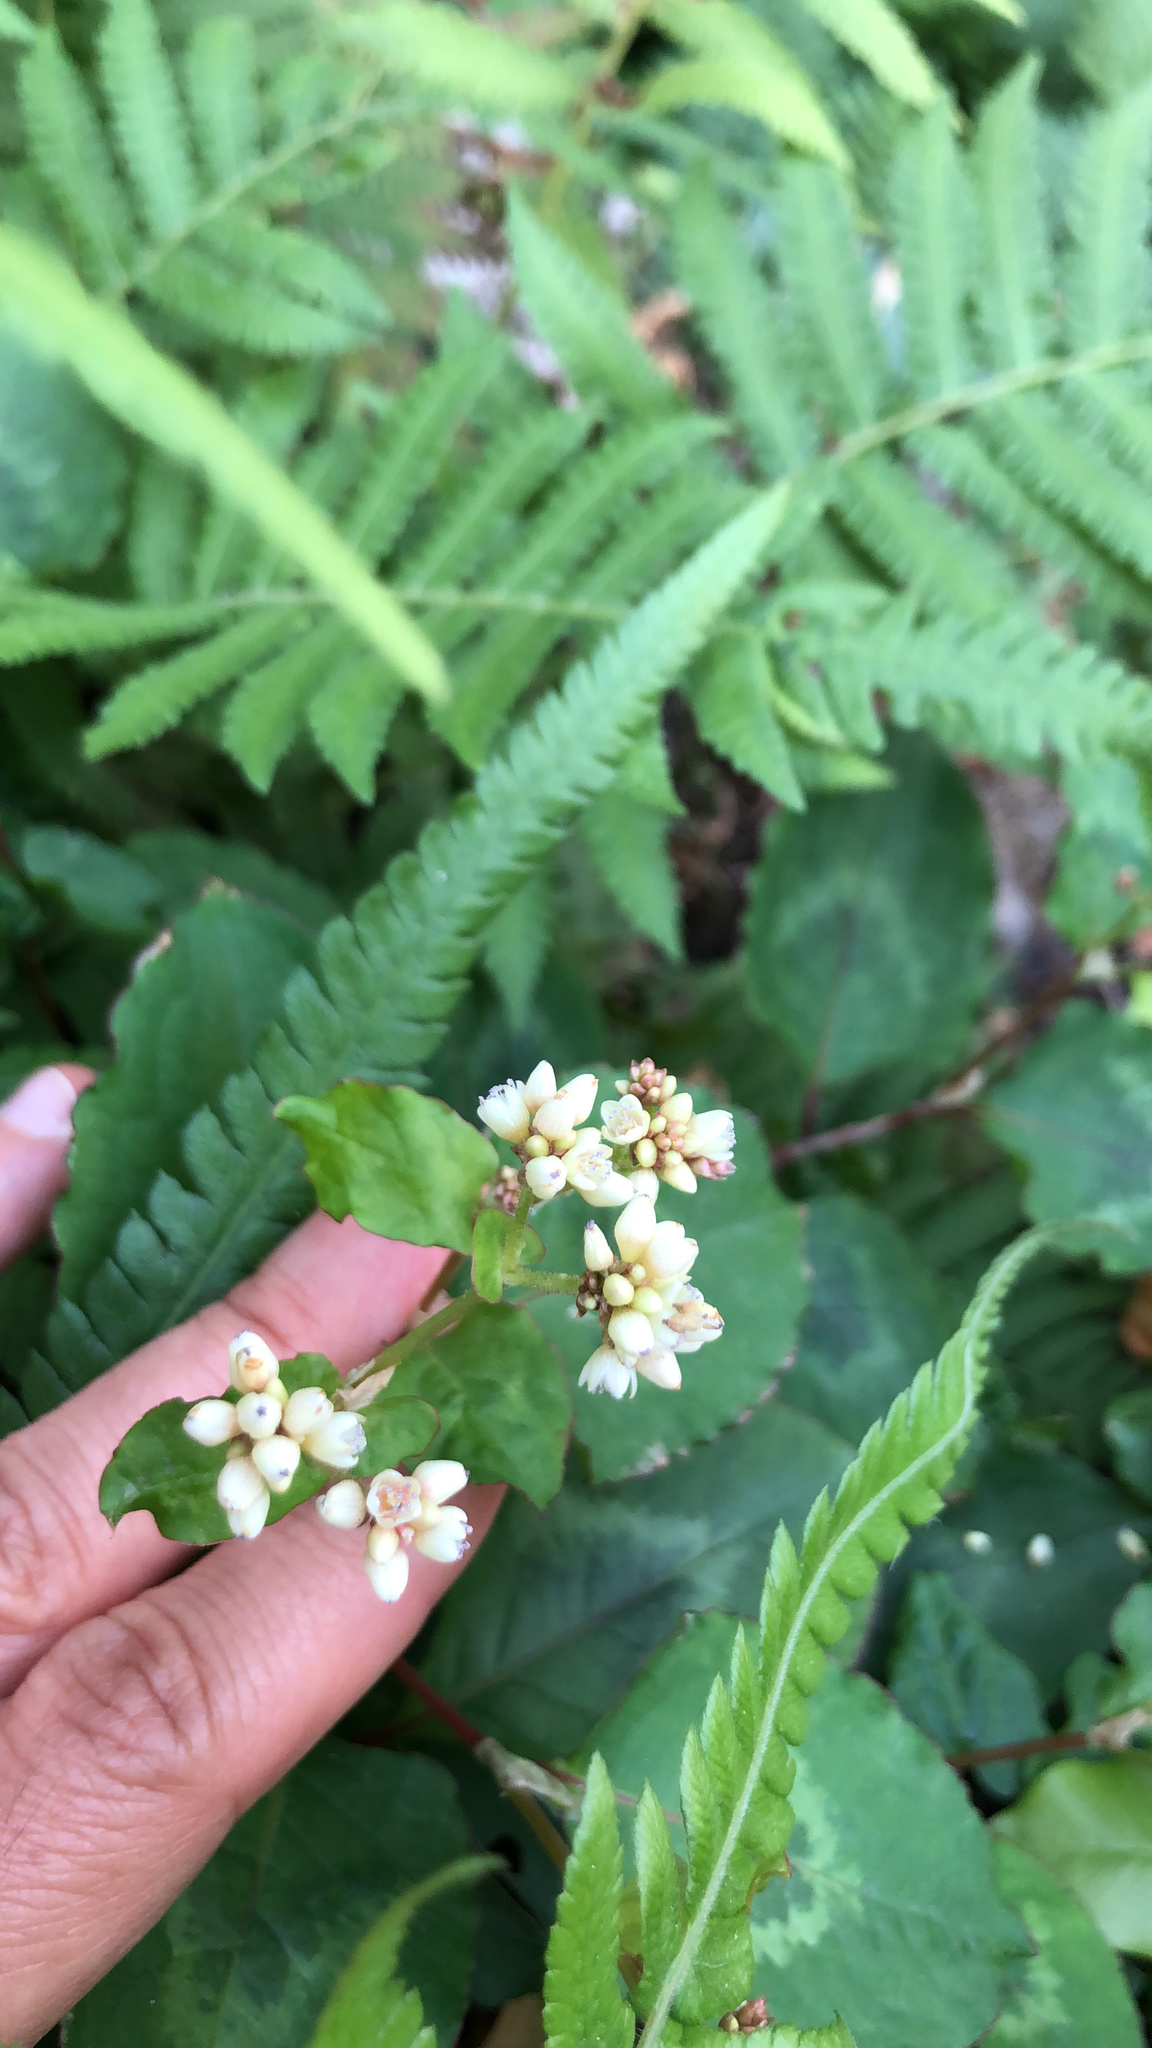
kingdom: Plantae
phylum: Tracheophyta
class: Magnoliopsida
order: Caryophyllales
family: Polygonaceae
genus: Persicaria
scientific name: Persicaria chinensis
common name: Chinese knotweed
